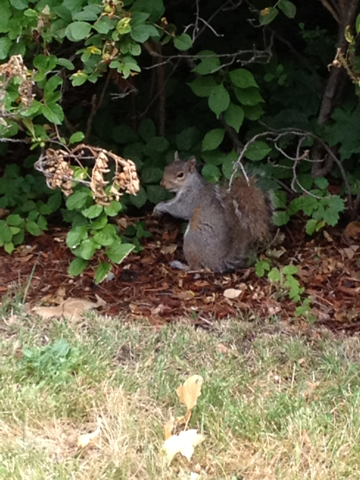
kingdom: Animalia
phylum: Chordata
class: Mammalia
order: Rodentia
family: Sciuridae
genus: Sciurus
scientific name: Sciurus carolinensis
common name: Eastern gray squirrel
